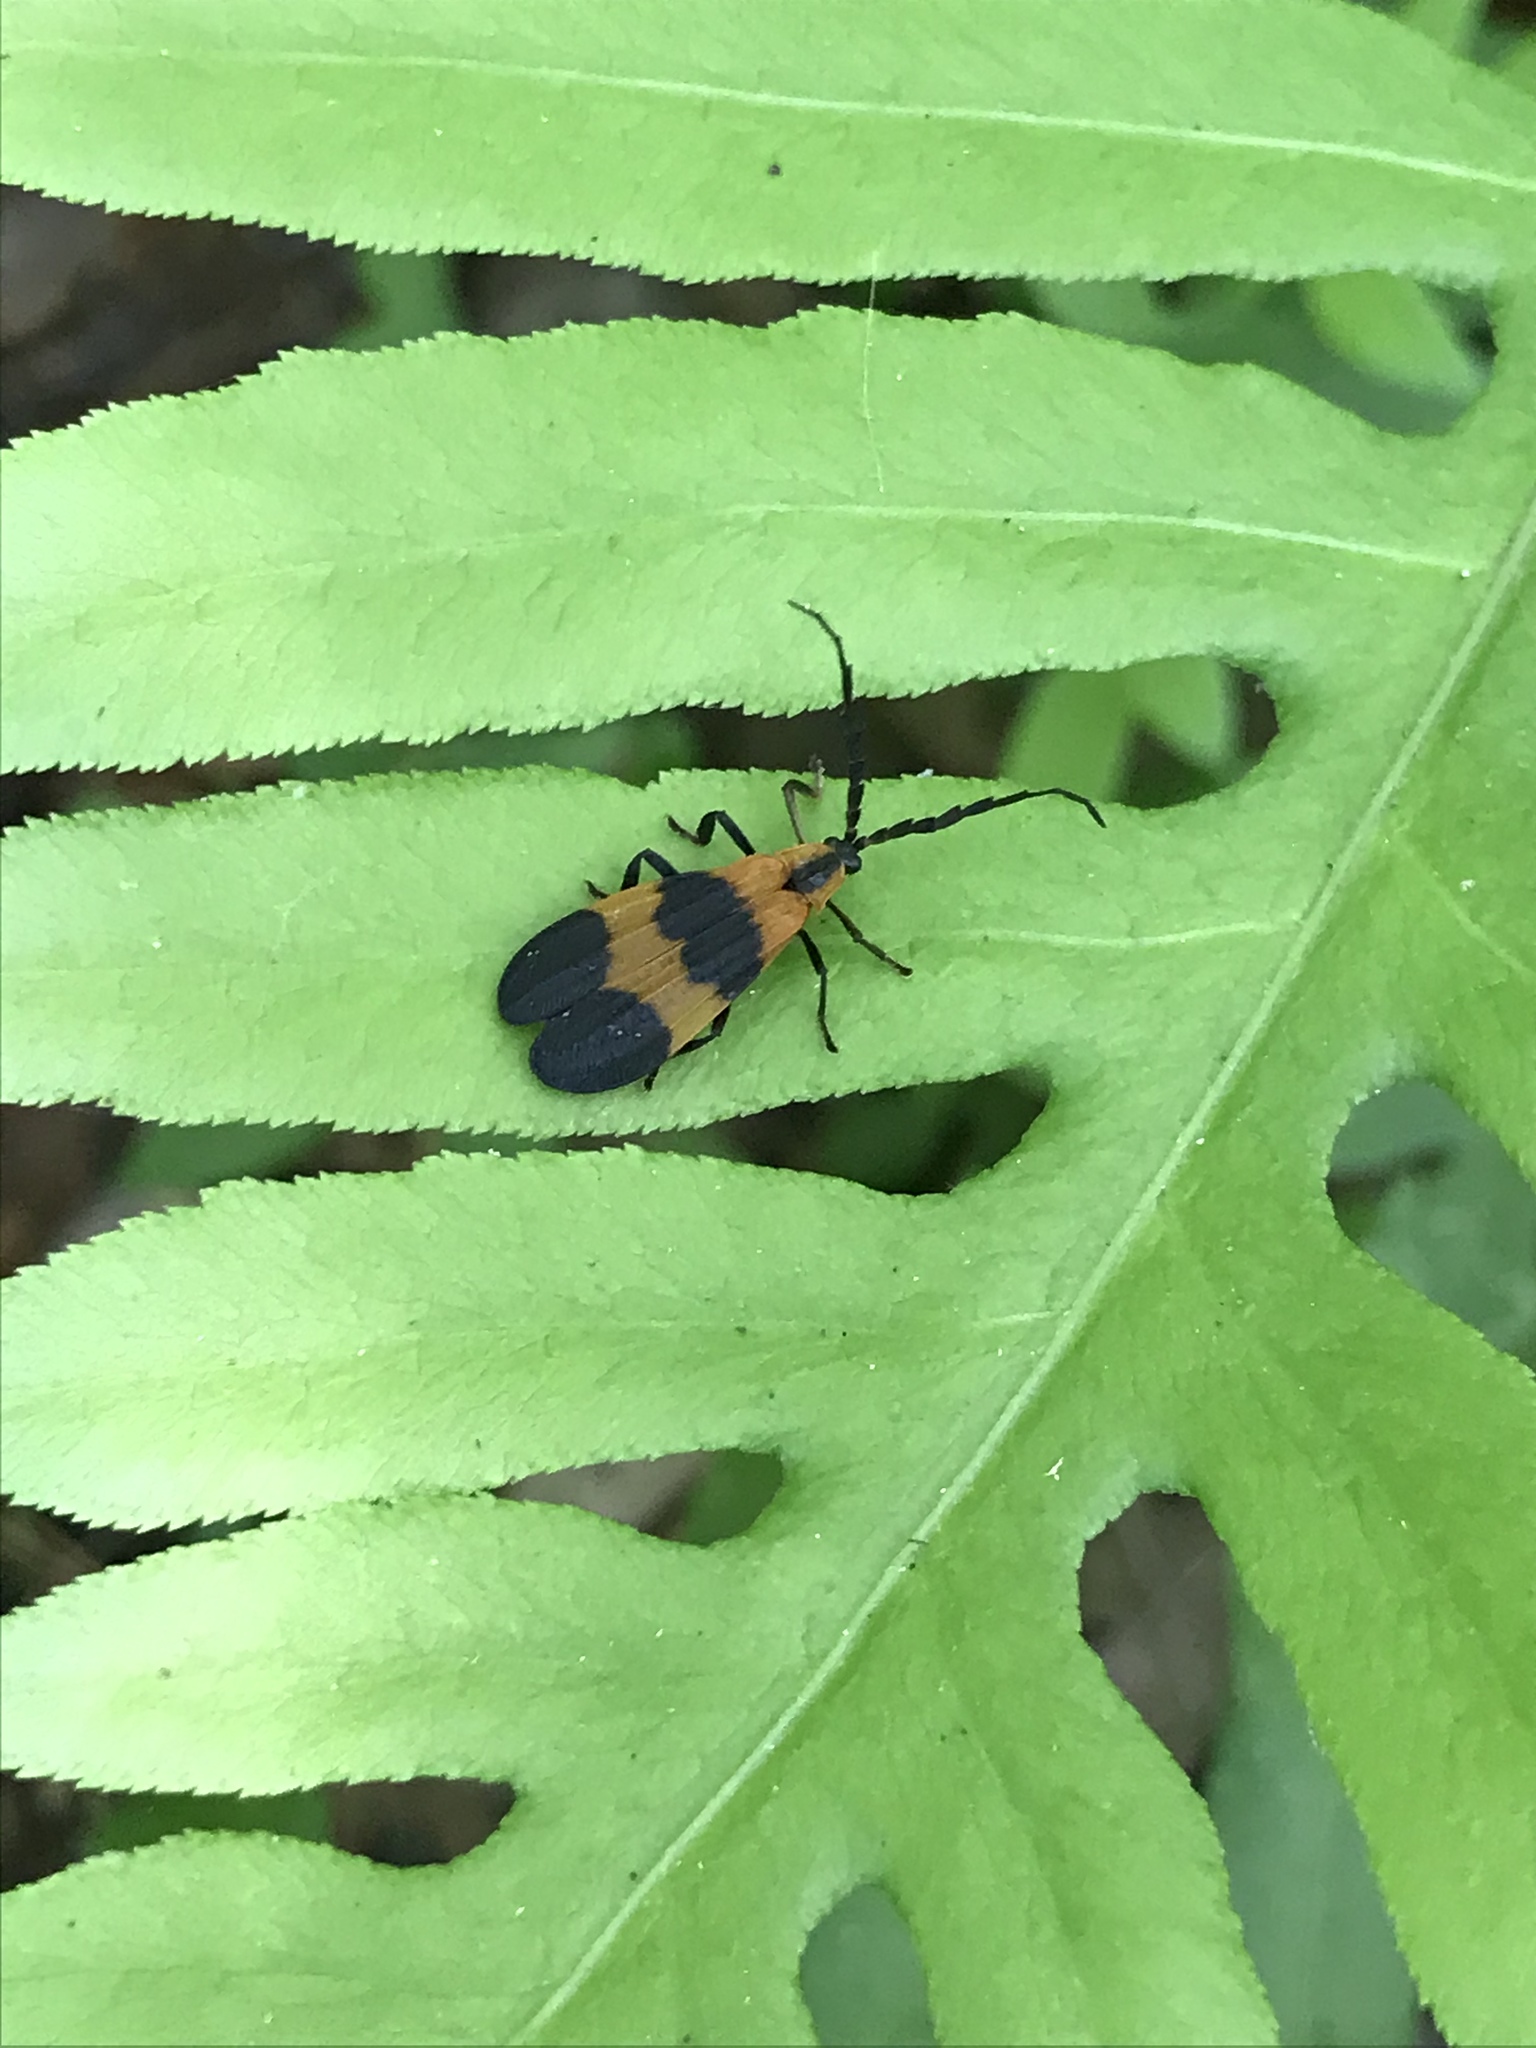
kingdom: Animalia
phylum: Arthropoda
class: Insecta
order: Coleoptera
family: Lycidae
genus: Calopteron
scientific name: Calopteron reticulatum
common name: Banded net-winged beetle
